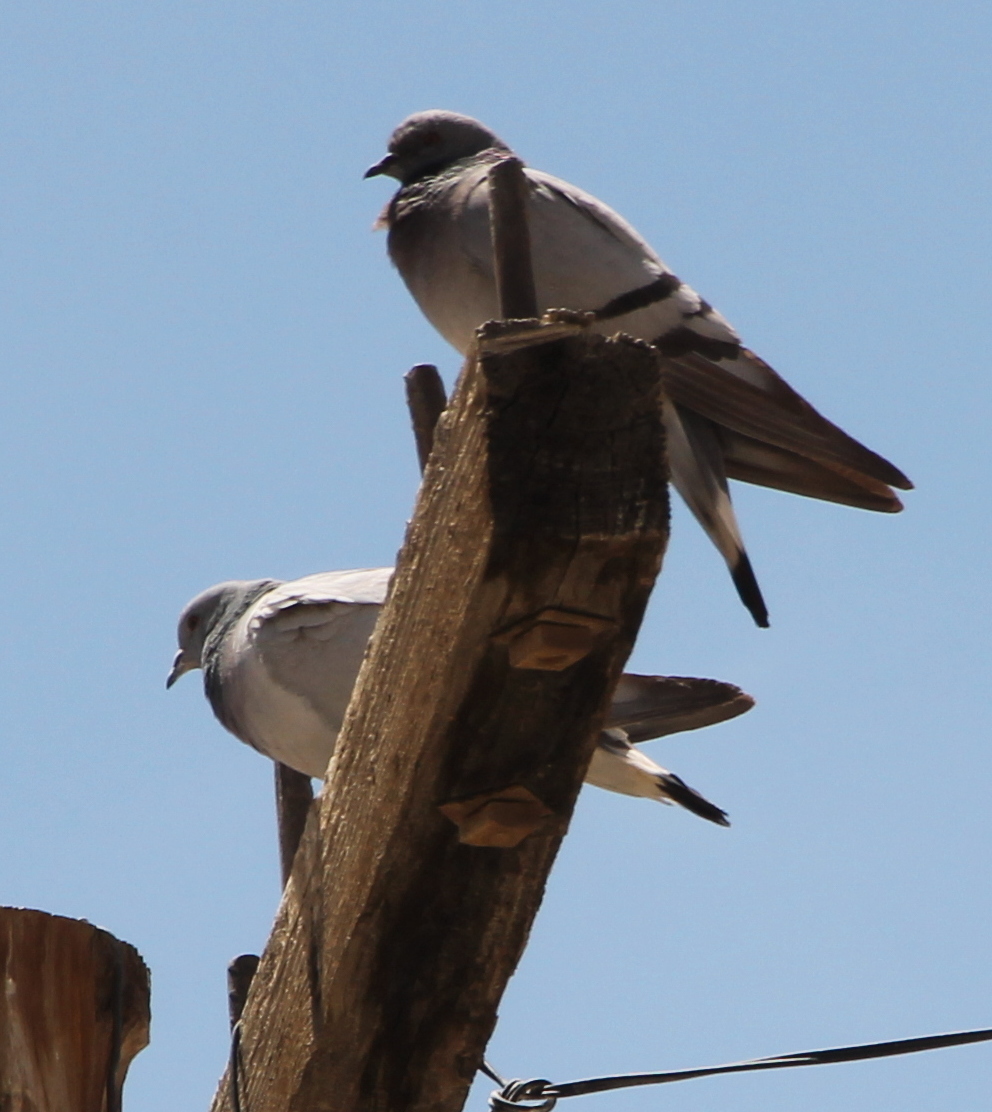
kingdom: Animalia
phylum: Chordata
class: Aves
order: Columbiformes
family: Columbidae
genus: Columba
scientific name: Columba rupestris
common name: Hill pigeon
